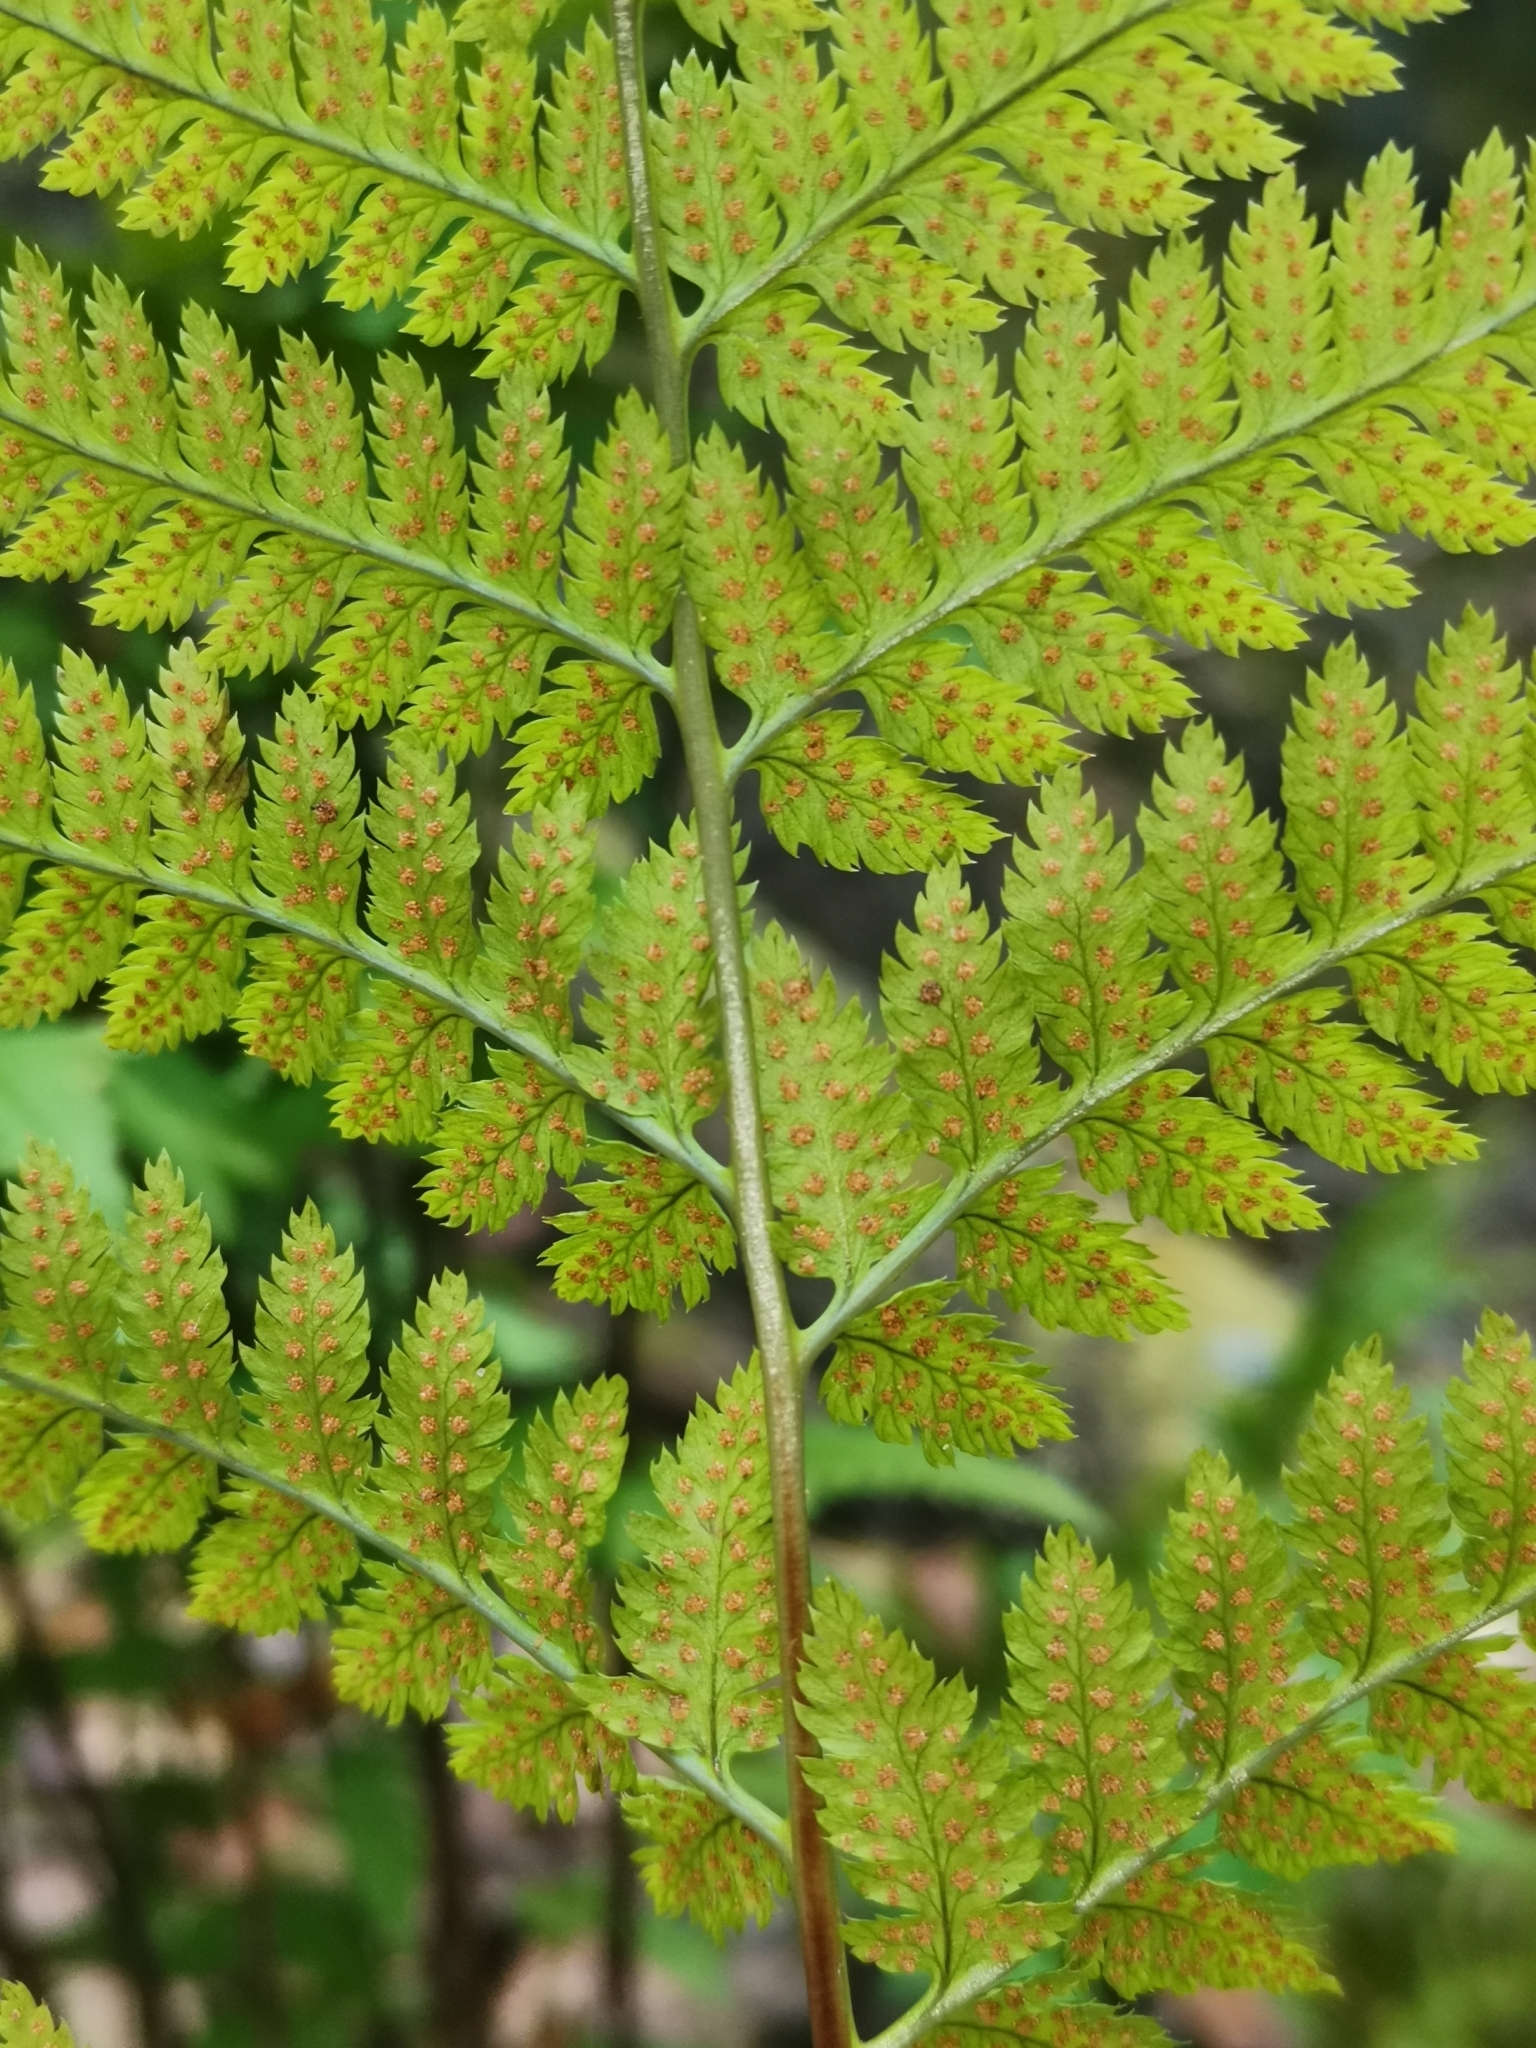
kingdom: Plantae
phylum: Tracheophyta
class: Polypodiopsida
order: Polypodiales
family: Dryopteridaceae
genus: Dryopteris
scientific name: Dryopteris carthusiana
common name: Narrow buckler-fern
